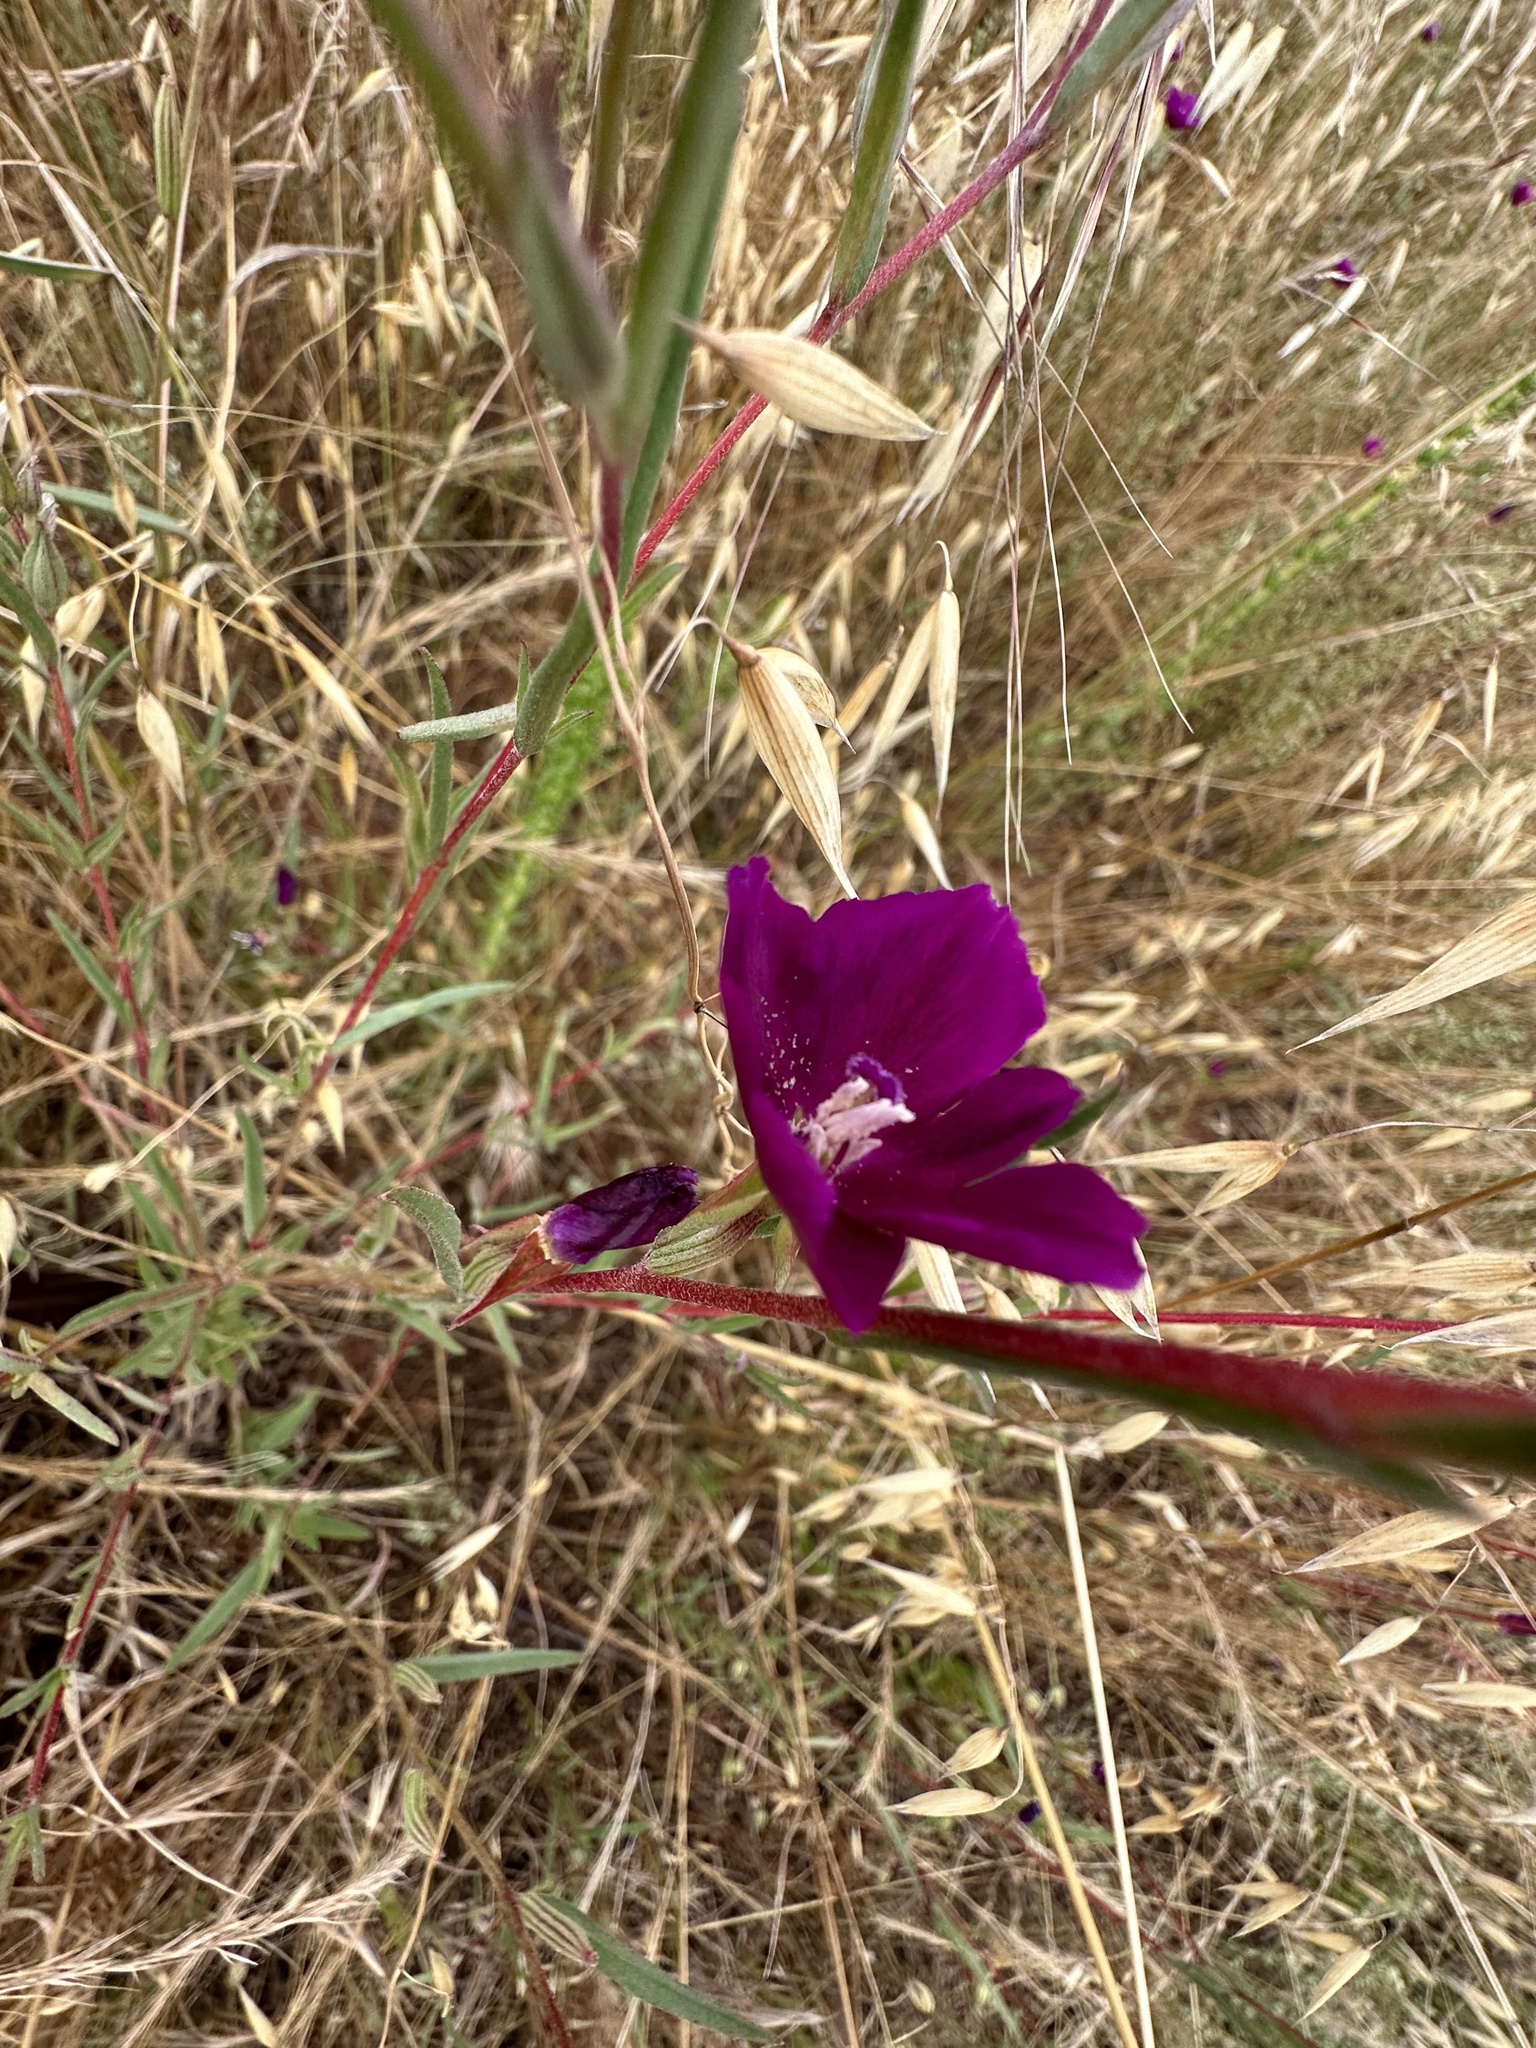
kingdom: Plantae
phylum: Tracheophyta
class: Magnoliopsida
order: Myrtales
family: Onagraceae
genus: Clarkia
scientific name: Clarkia purpurea
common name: Purple clarkia
